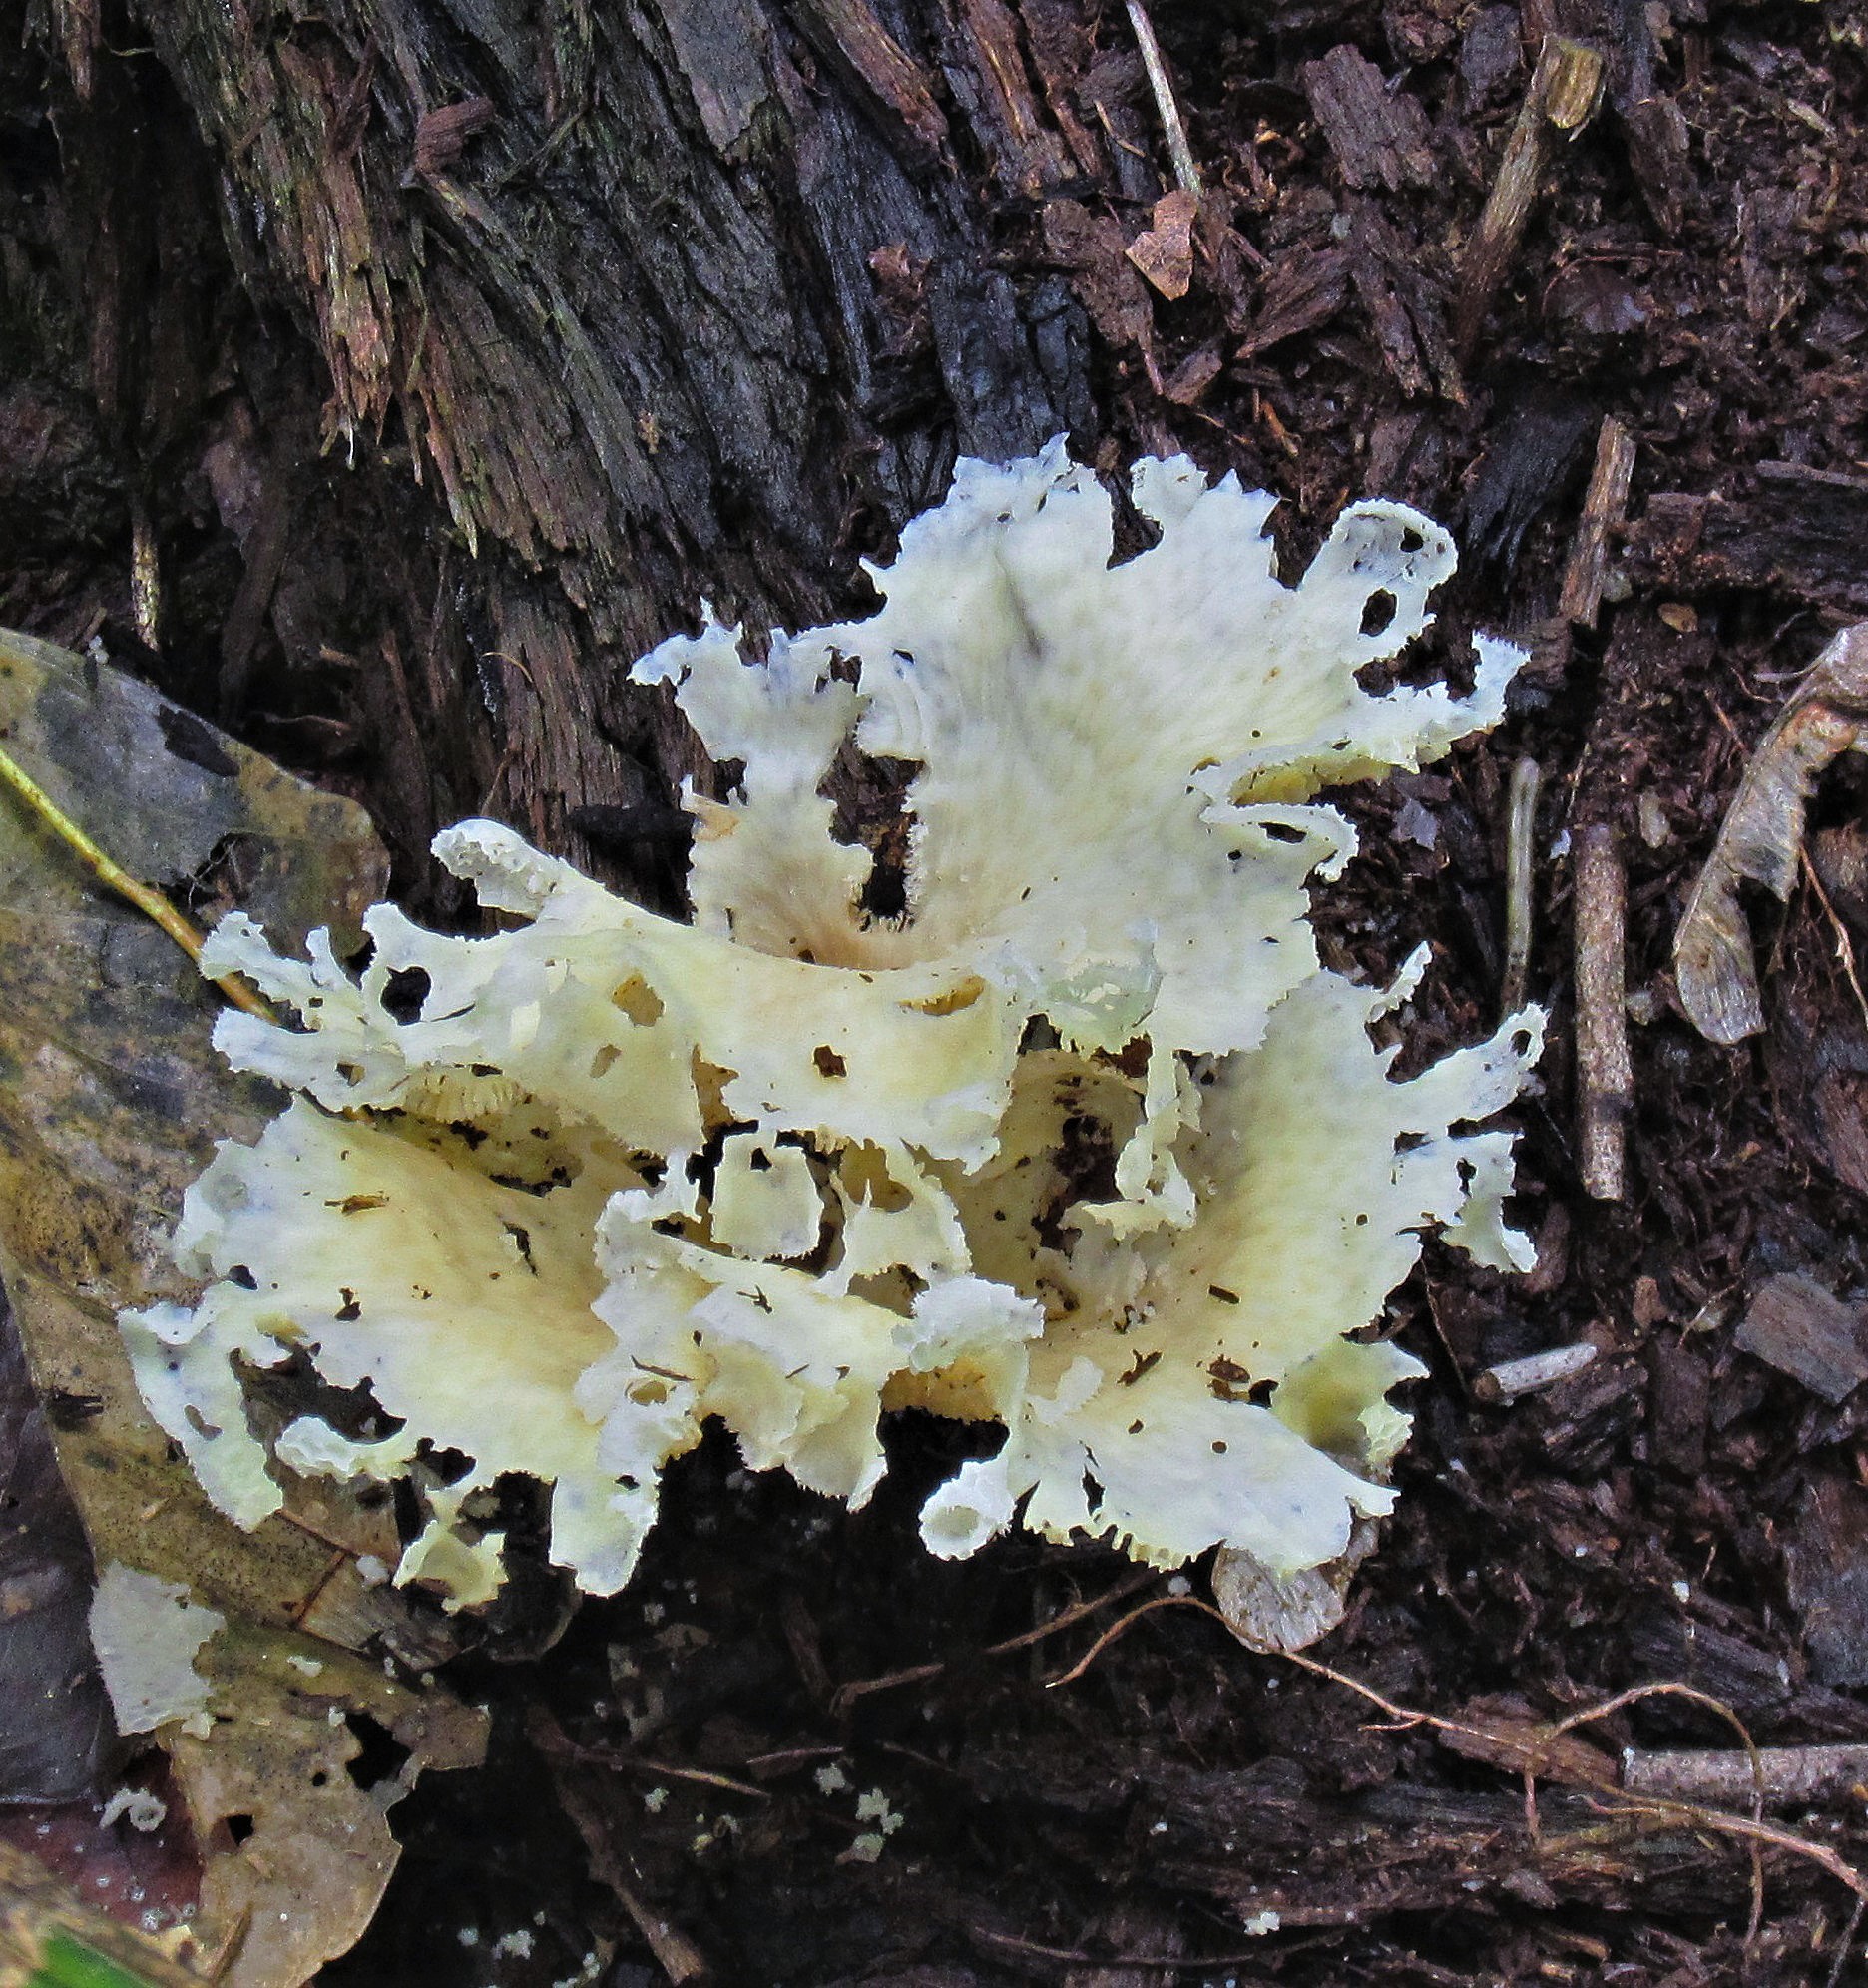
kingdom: Fungi
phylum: Basidiomycota
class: Agaricomycetes
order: Polyporales
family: Polyporaceae
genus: Favolus
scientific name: Favolus tenuiculus
